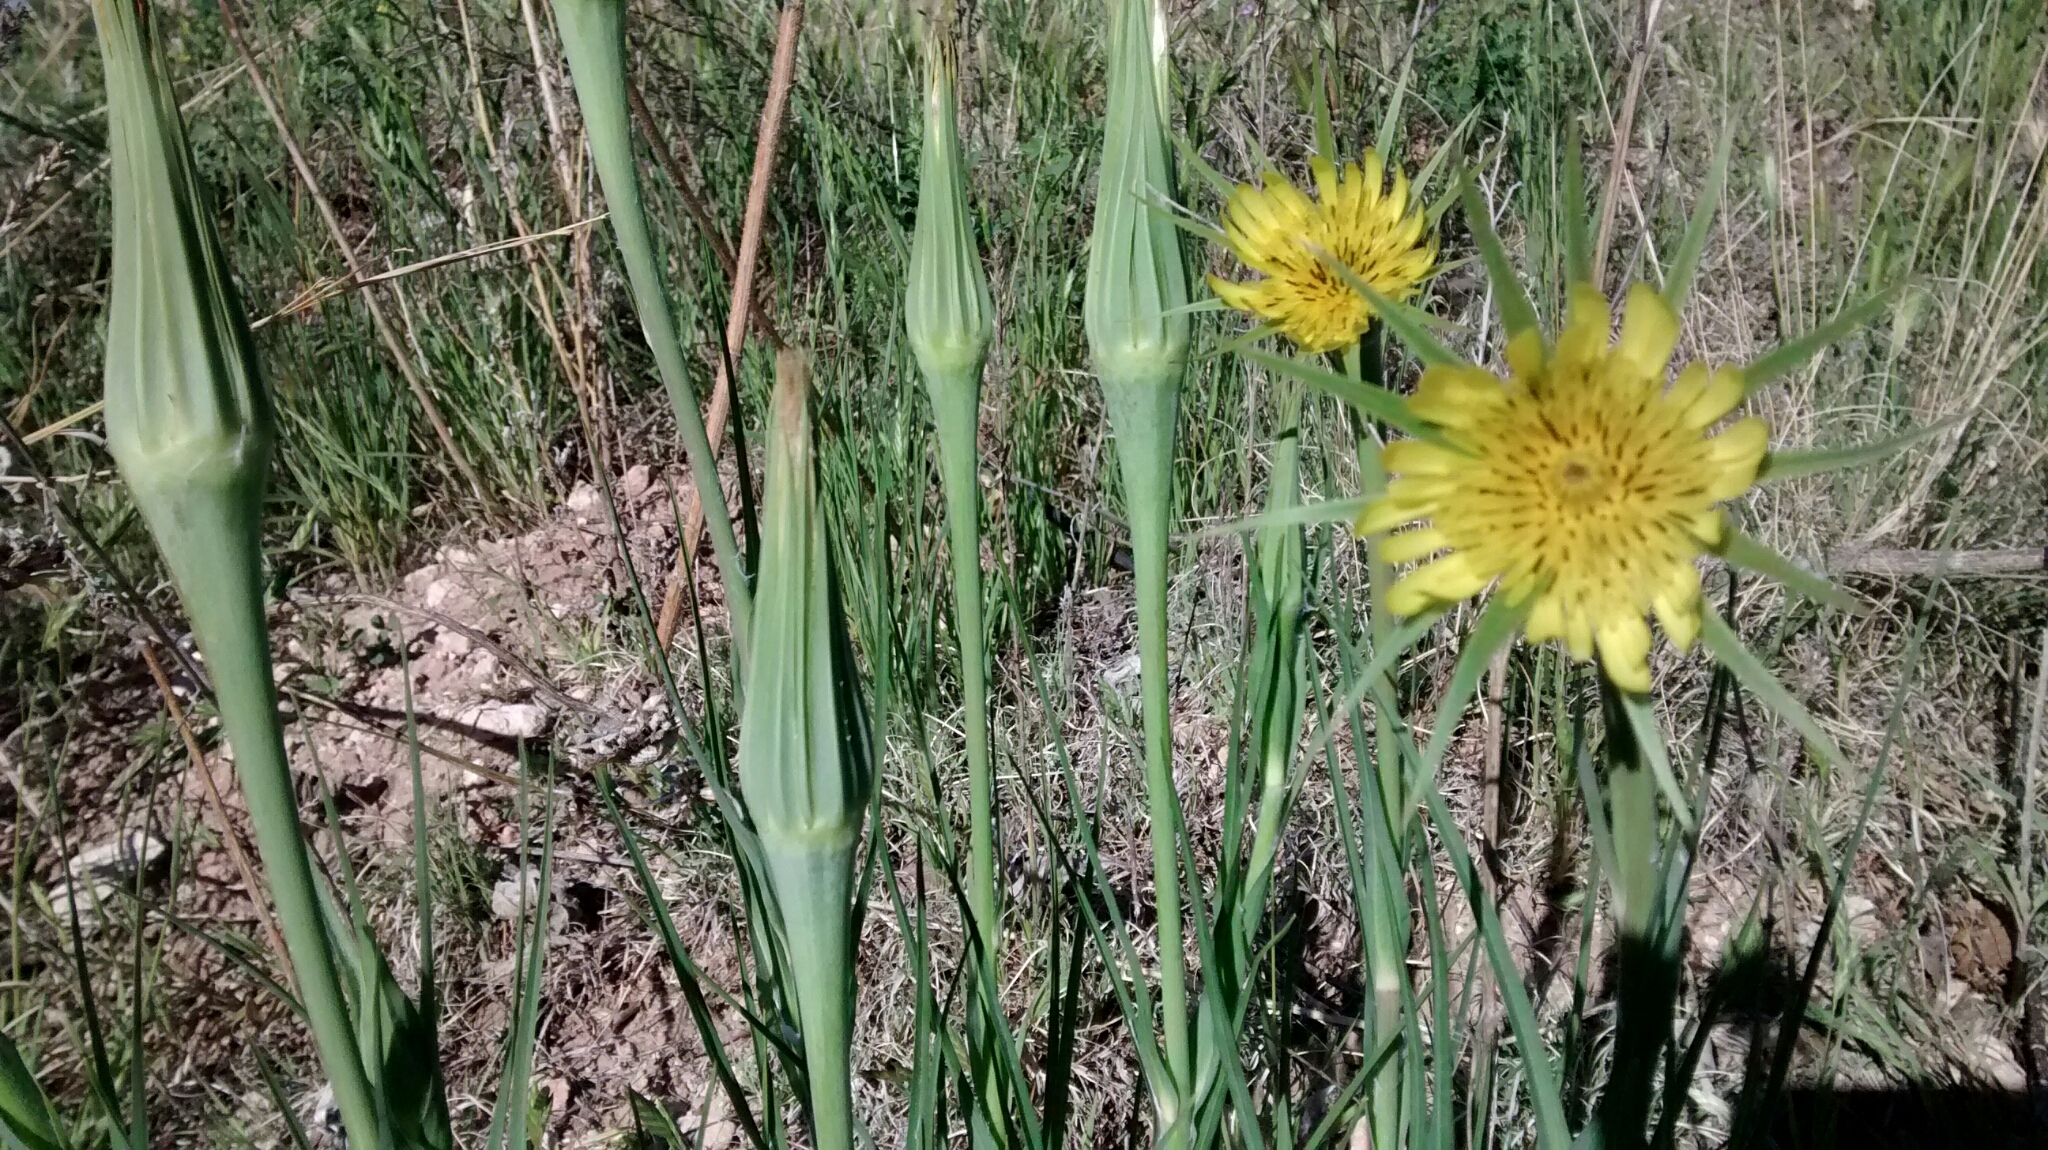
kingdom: Plantae
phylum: Tracheophyta
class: Magnoliopsida
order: Asterales
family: Asteraceae
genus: Tragopogon
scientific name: Tragopogon dubius
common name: Yellow salsify
